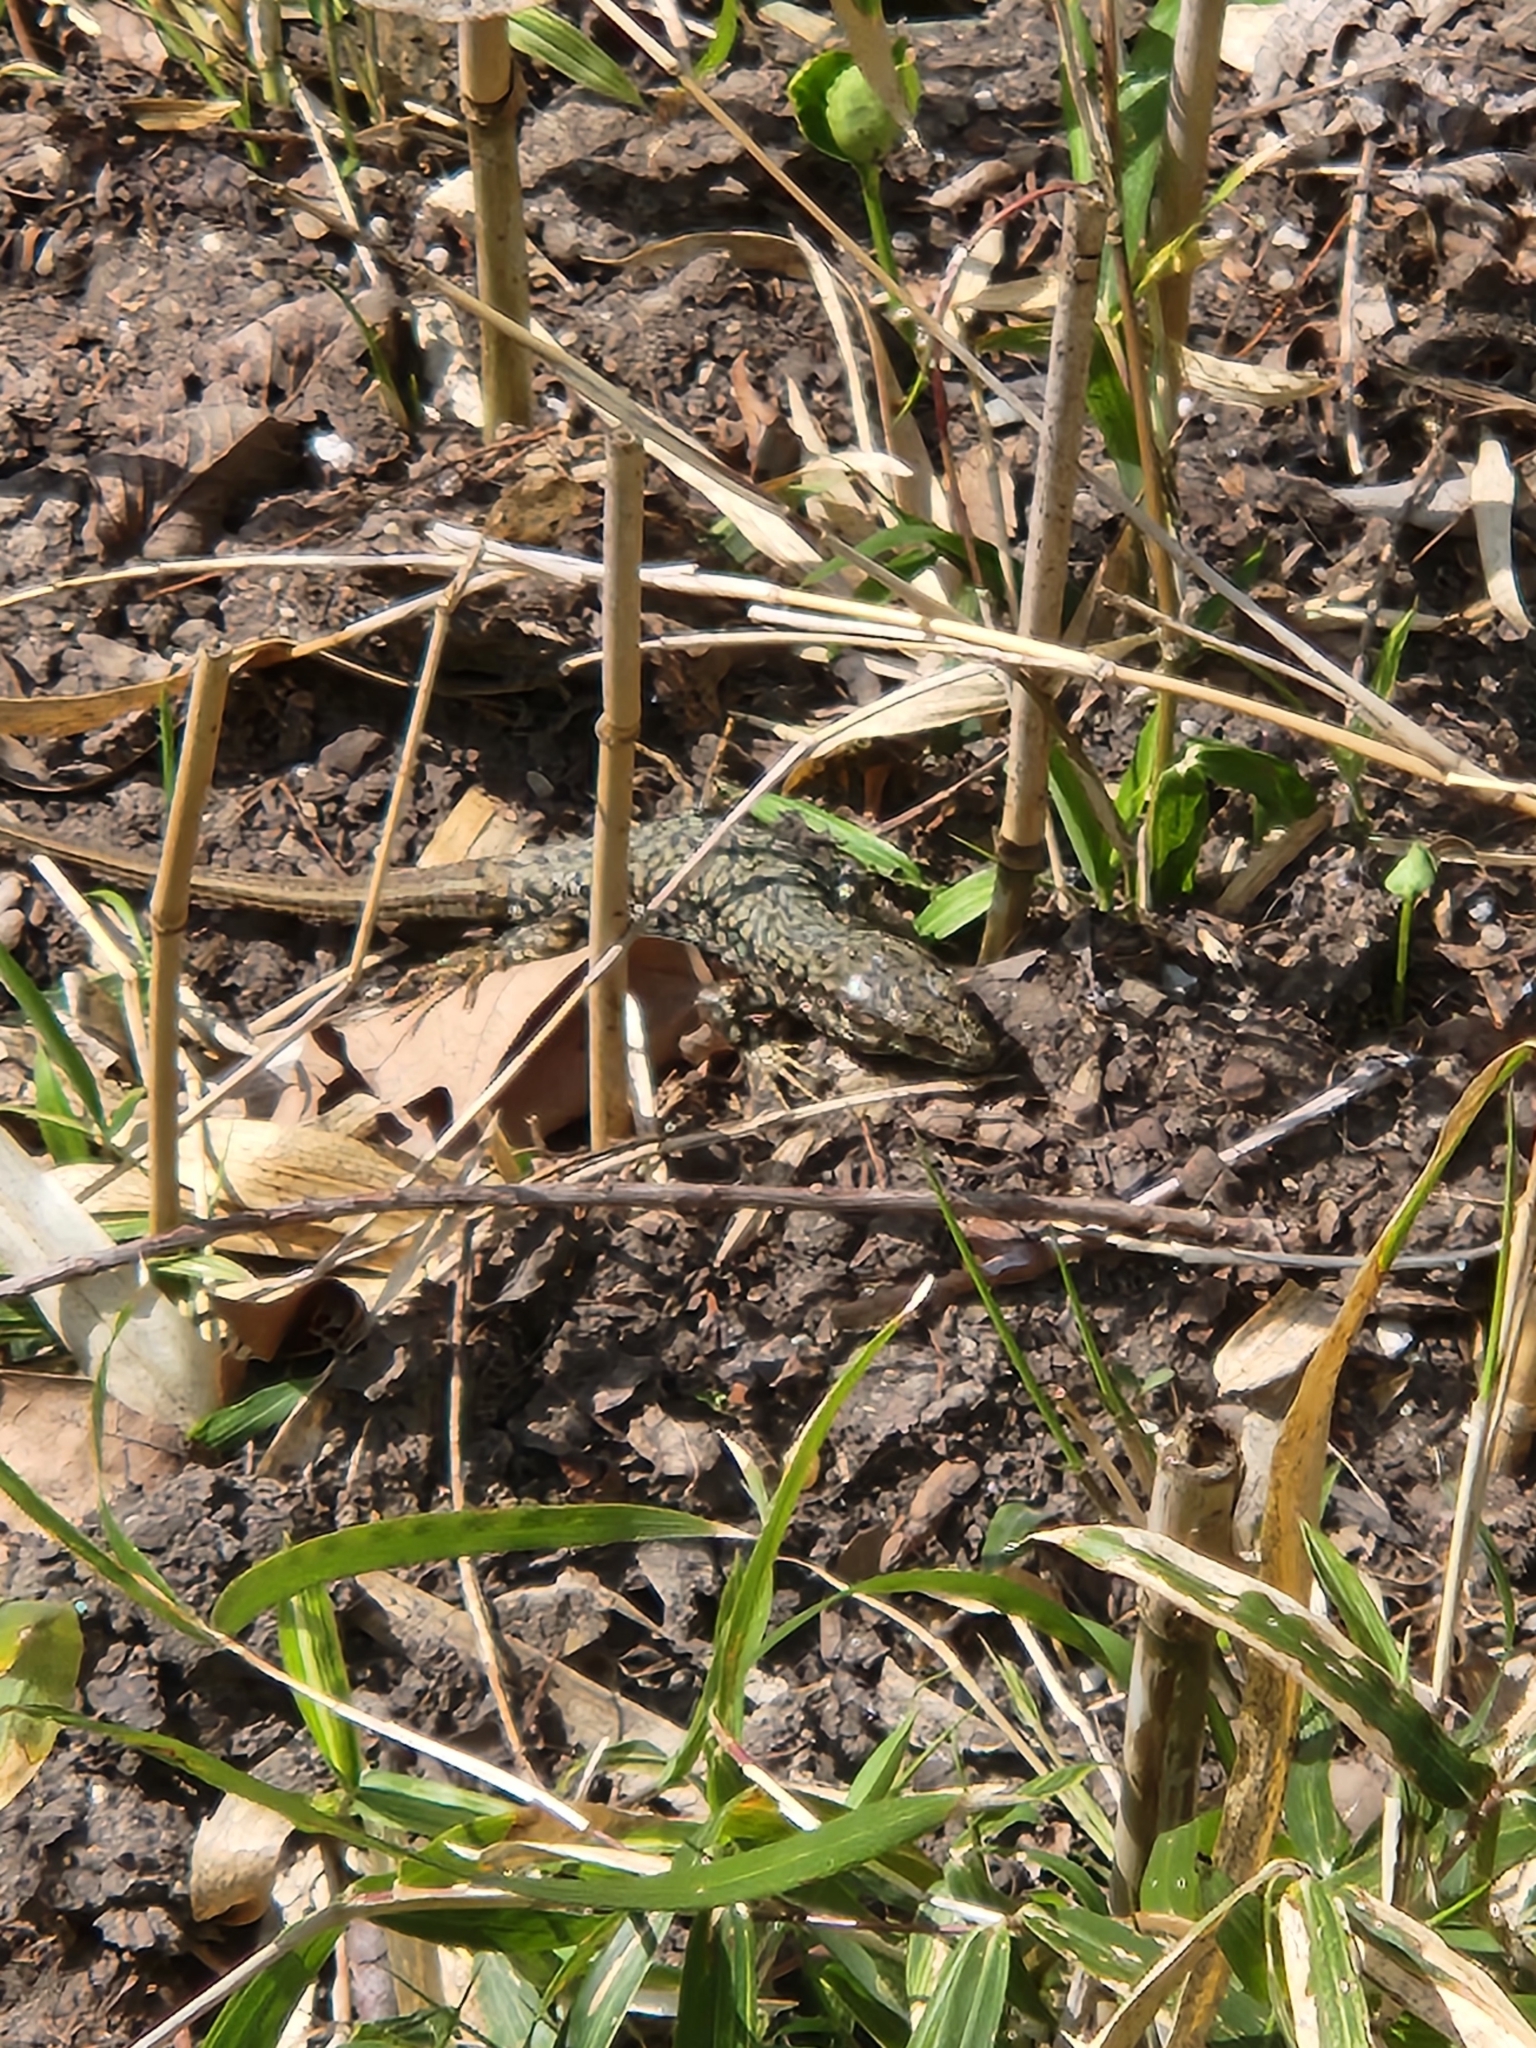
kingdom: Animalia
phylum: Chordata
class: Squamata
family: Lacertidae
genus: Podarcis
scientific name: Podarcis muralis
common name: Common wall lizard
